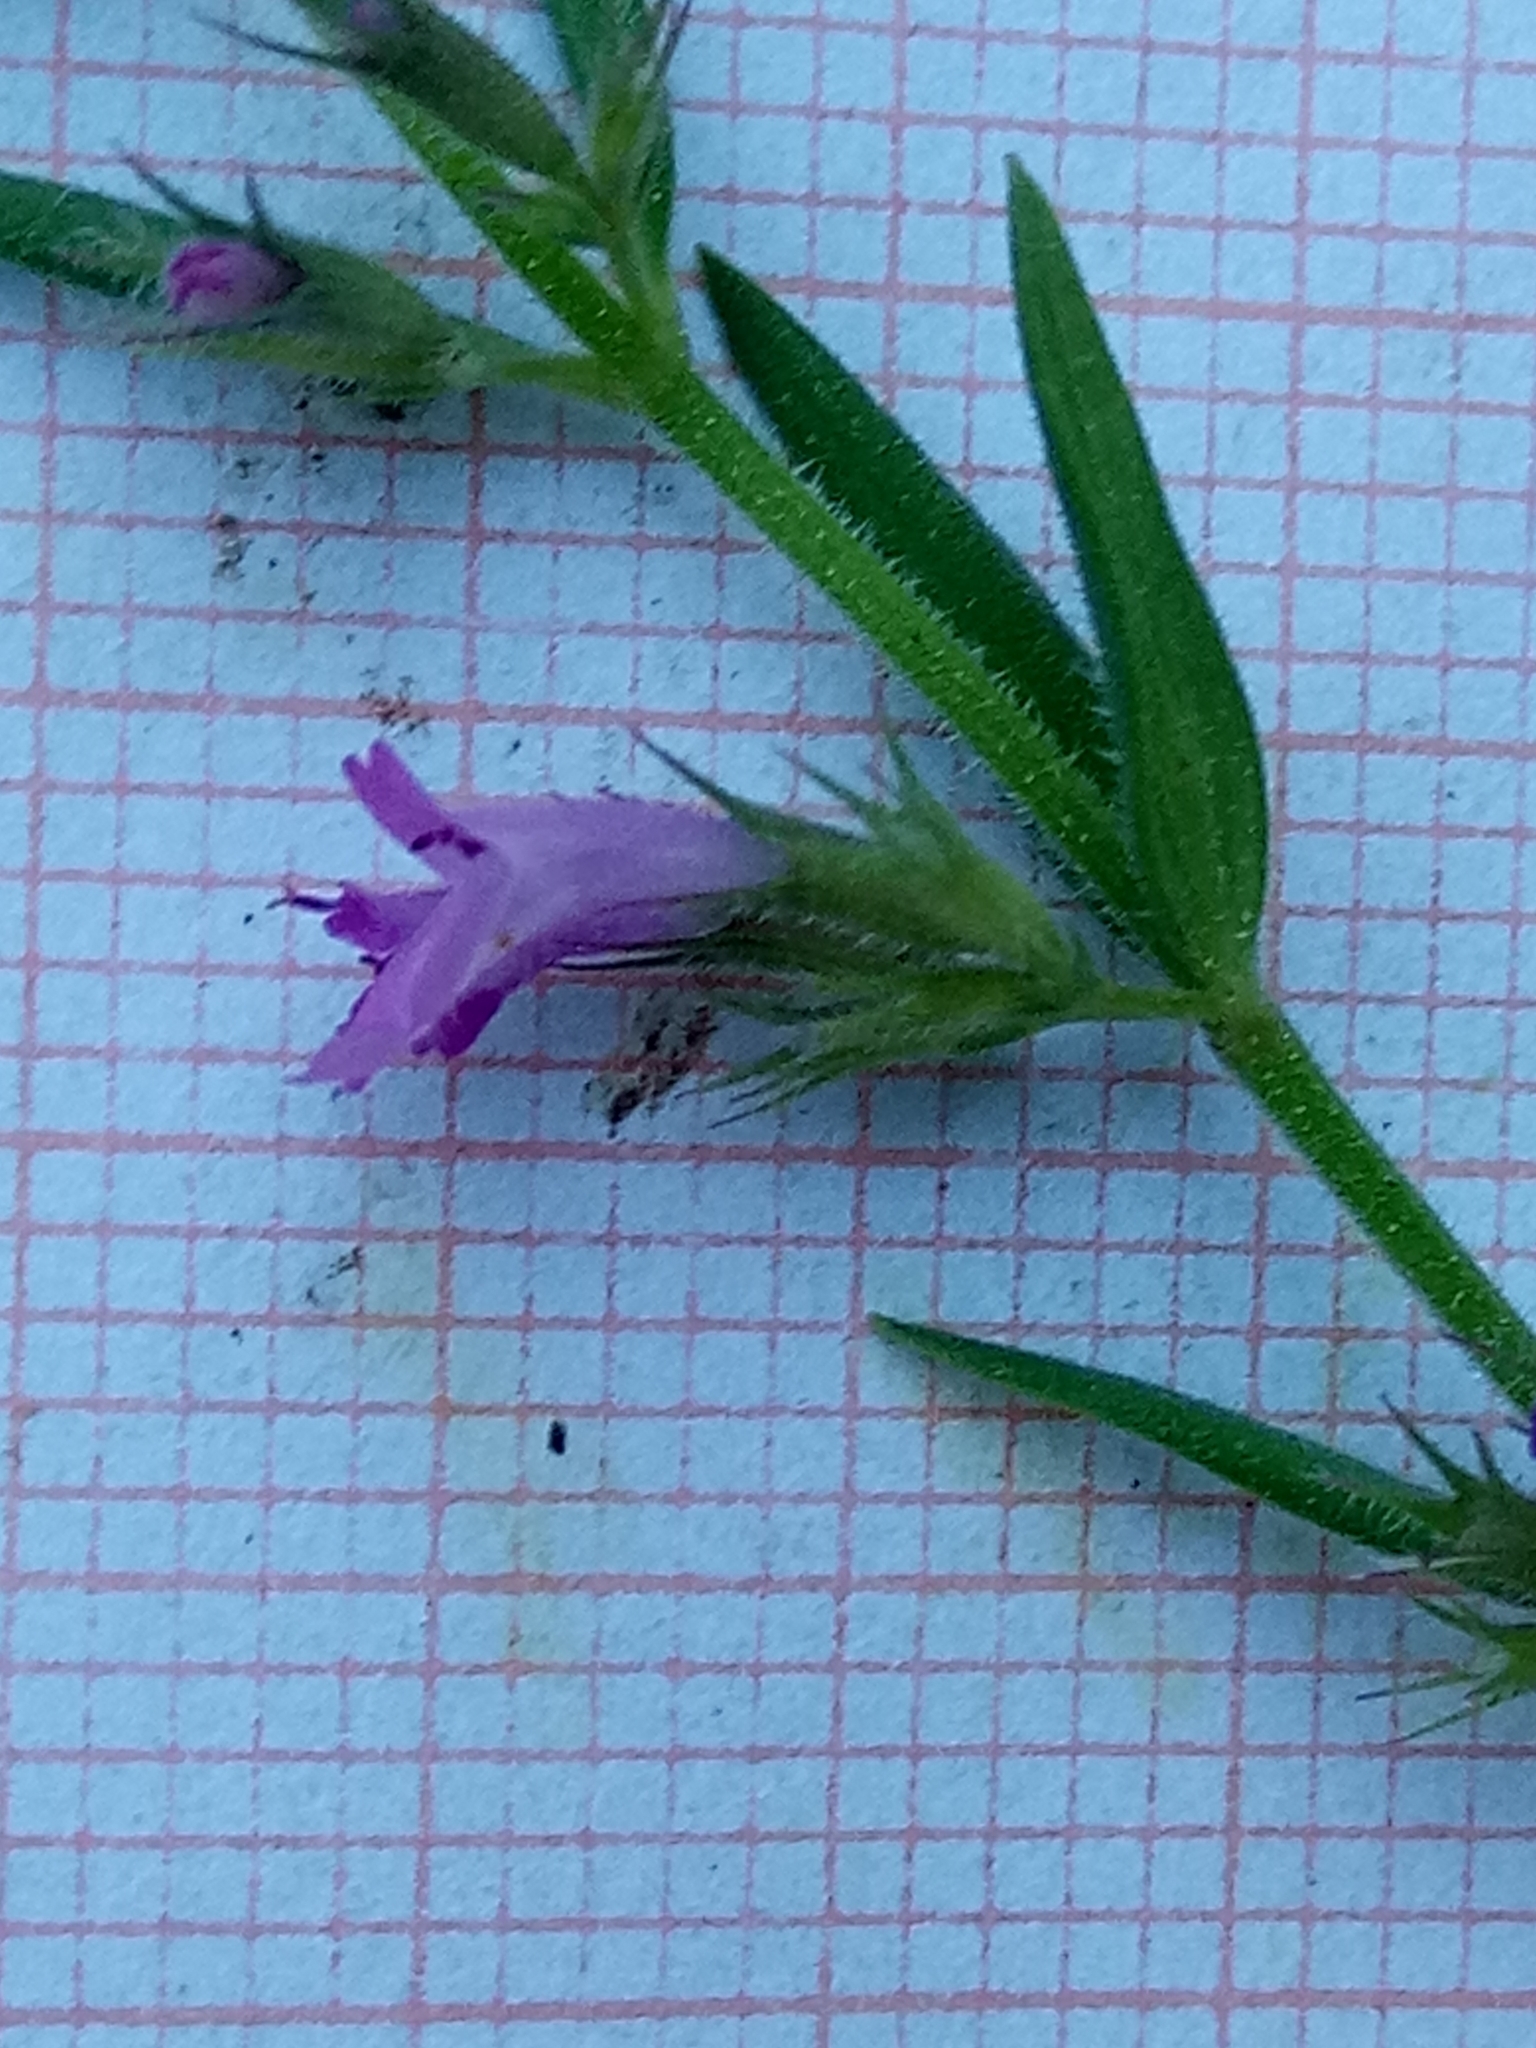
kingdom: Plantae
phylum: Tracheophyta
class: Magnoliopsida
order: Lamiales
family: Lamiaceae
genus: Micromeria
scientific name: Micromeria graeca
